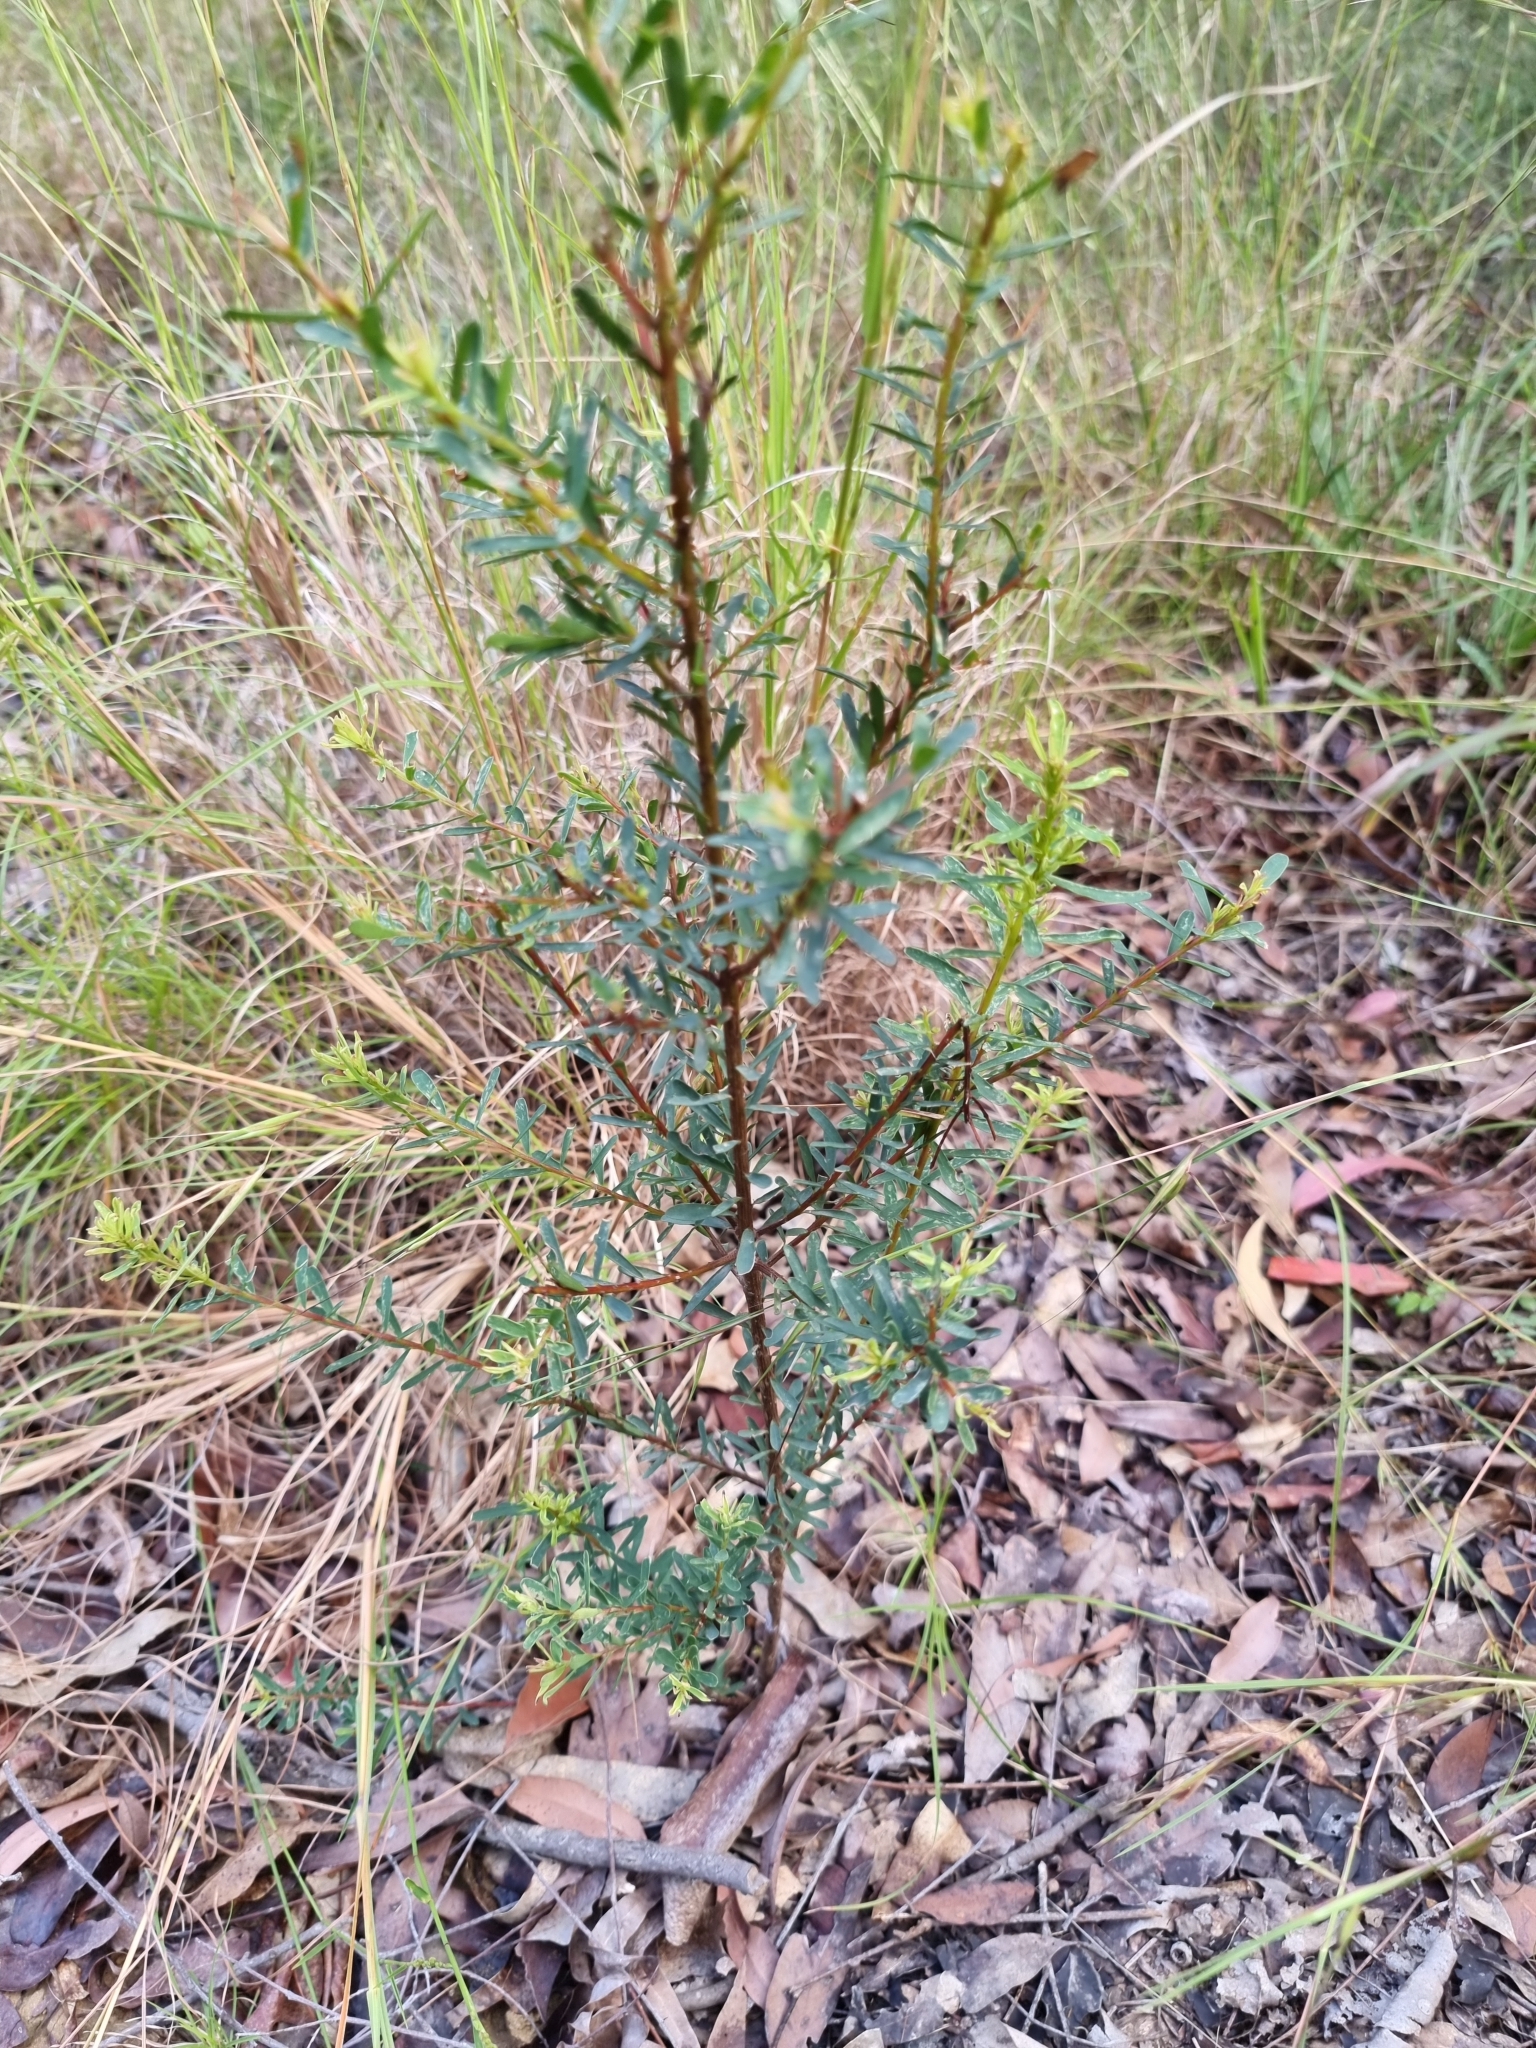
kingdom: Plantae
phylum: Tracheophyta
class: Magnoliopsida
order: Fabales
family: Fabaceae
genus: Pultenaea
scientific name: Pultenaea euchila
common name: Large-flower bush-pea
